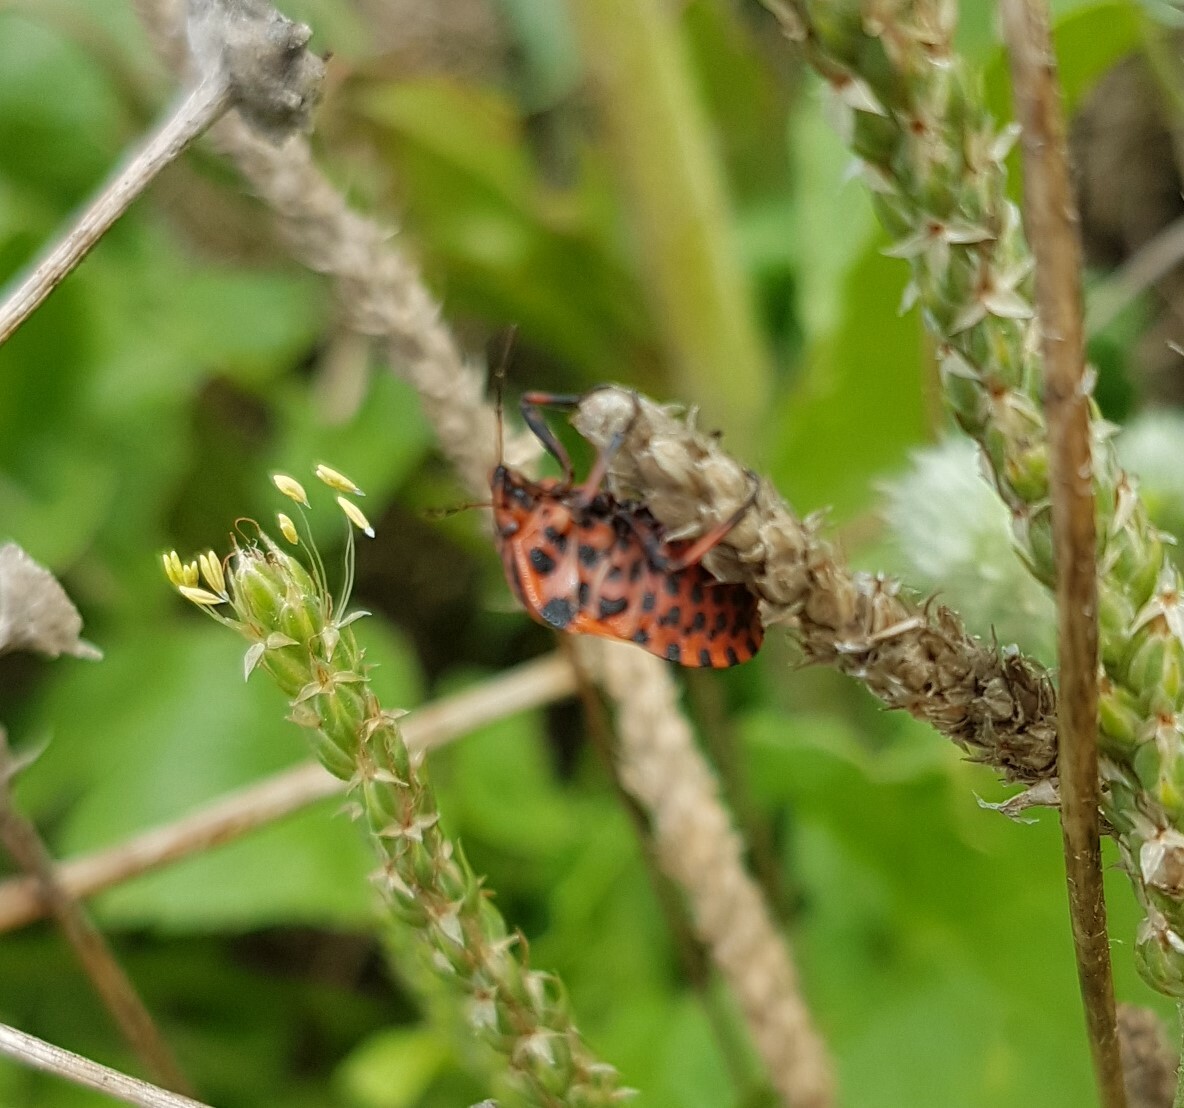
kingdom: Animalia
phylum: Arthropoda
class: Insecta
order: Hemiptera
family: Pentatomidae
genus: Graphosoma
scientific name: Graphosoma italicum
